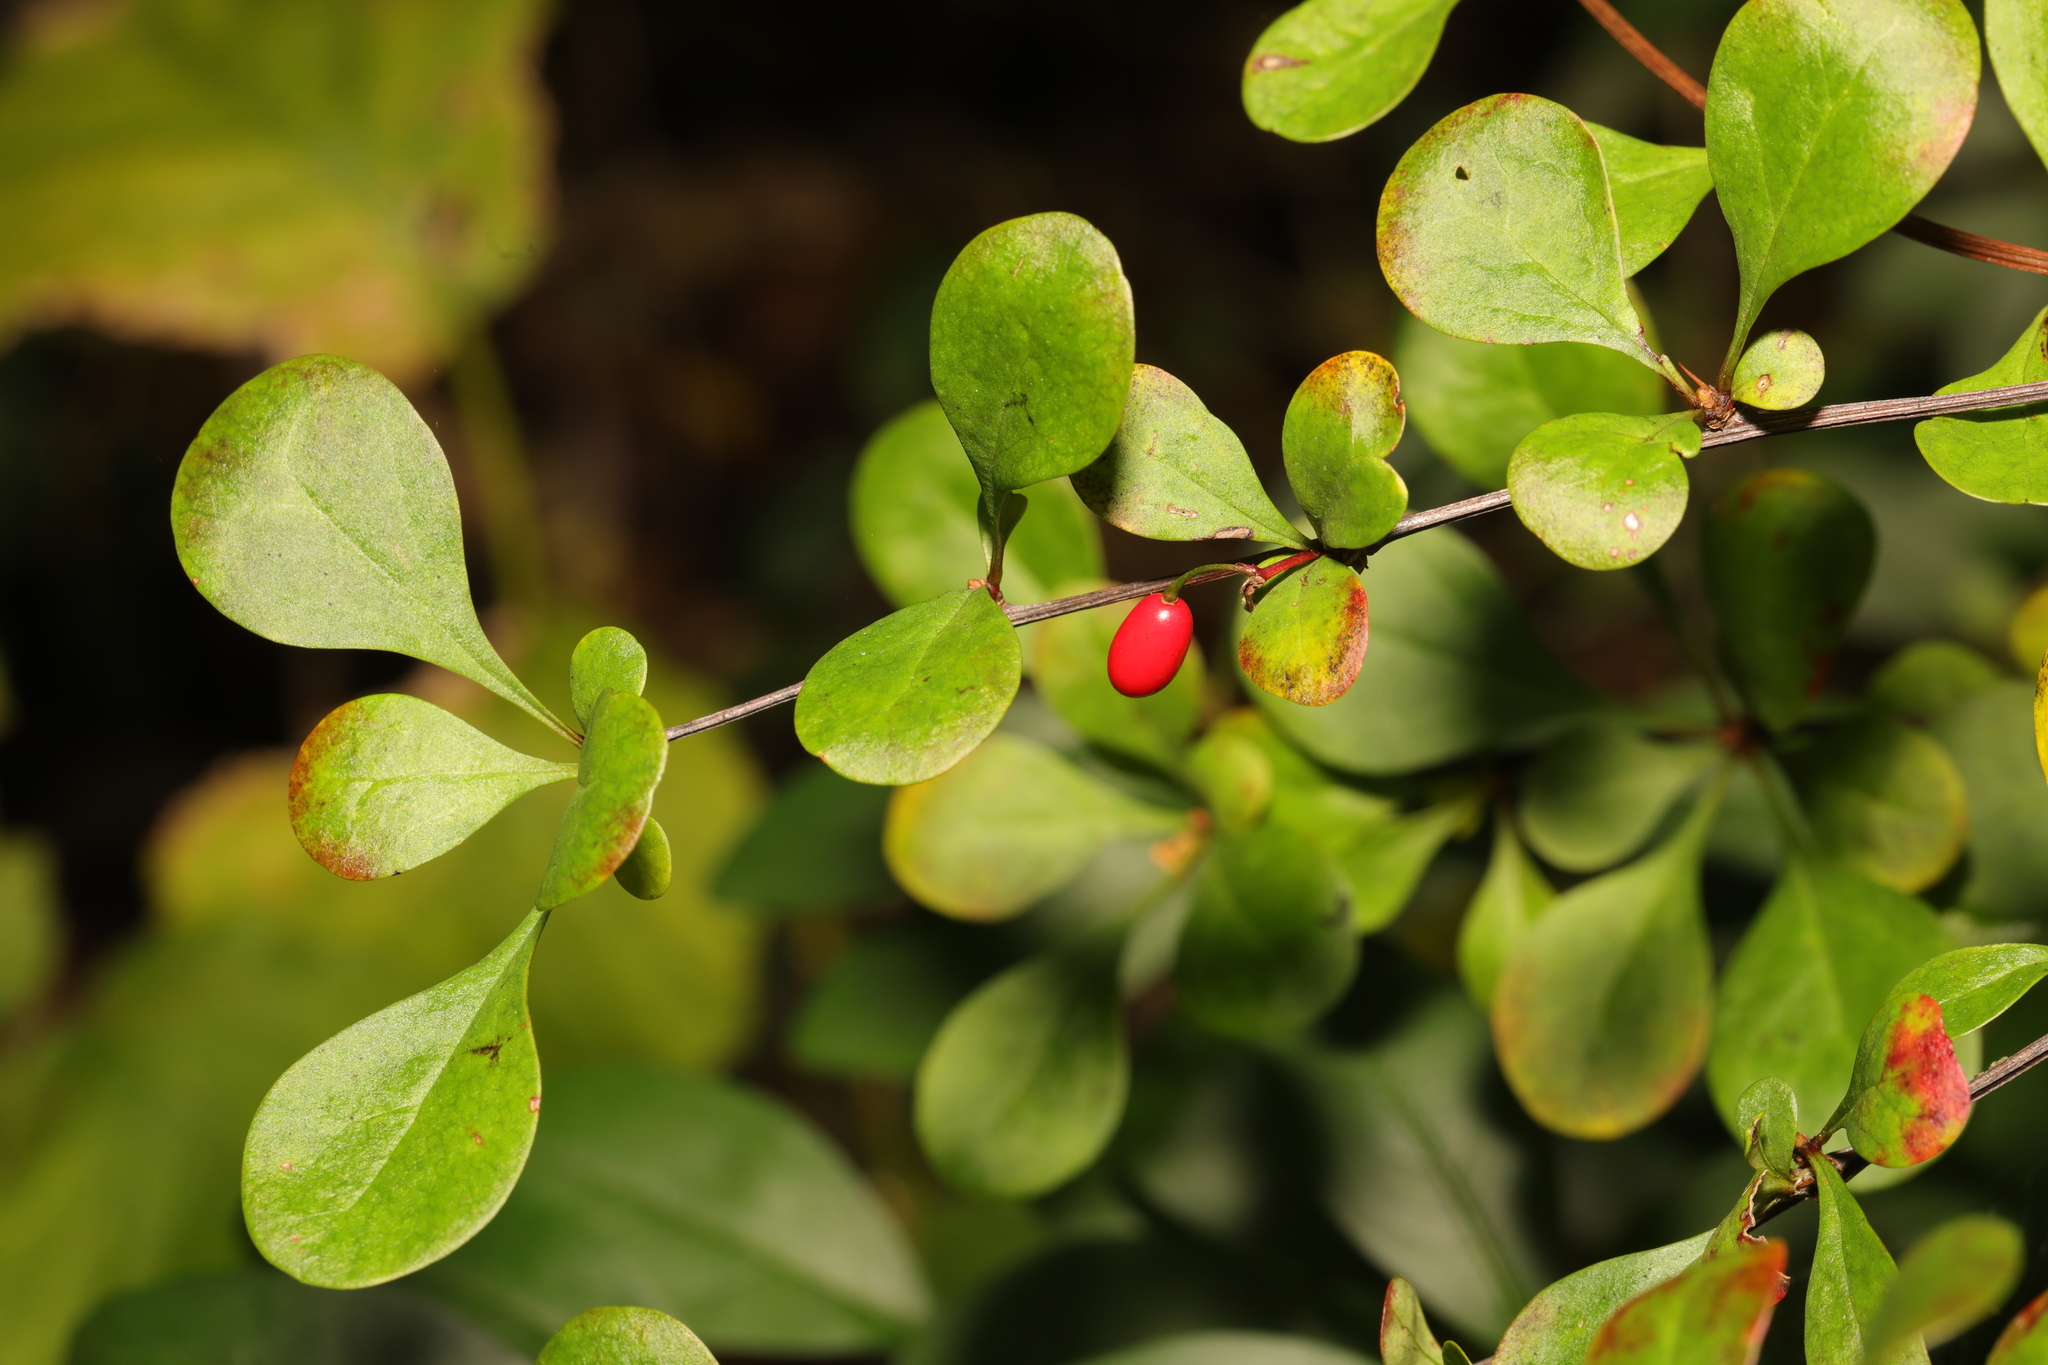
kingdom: Plantae
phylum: Tracheophyta
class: Magnoliopsida
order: Ranunculales
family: Berberidaceae
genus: Berberis
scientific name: Berberis vulgaris
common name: Barberry
